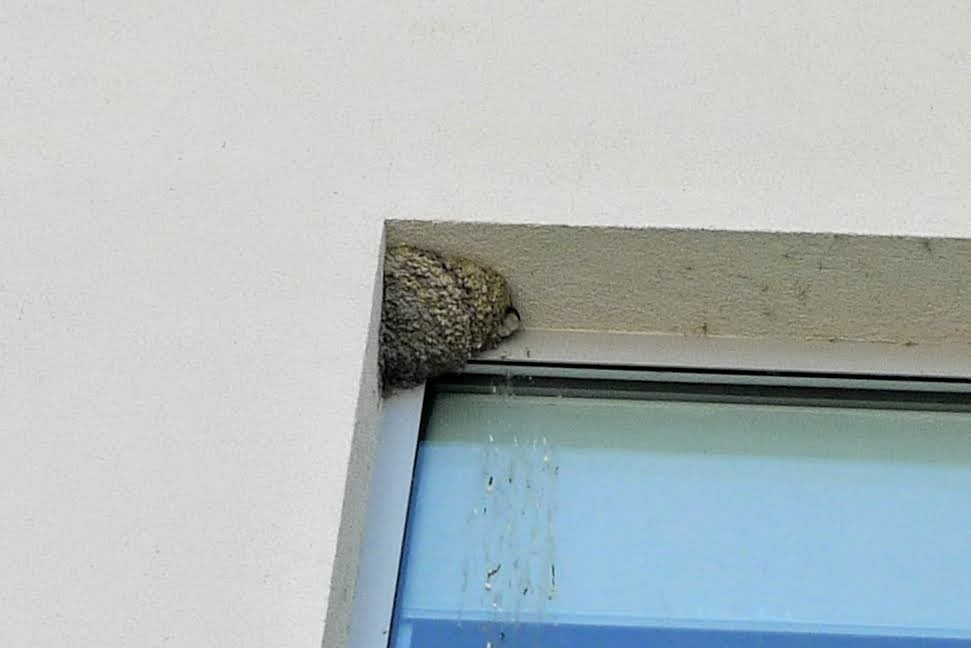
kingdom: Animalia
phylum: Chordata
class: Aves
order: Passeriformes
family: Hirundinidae
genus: Delichon
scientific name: Delichon urbicum
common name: Common house martin
